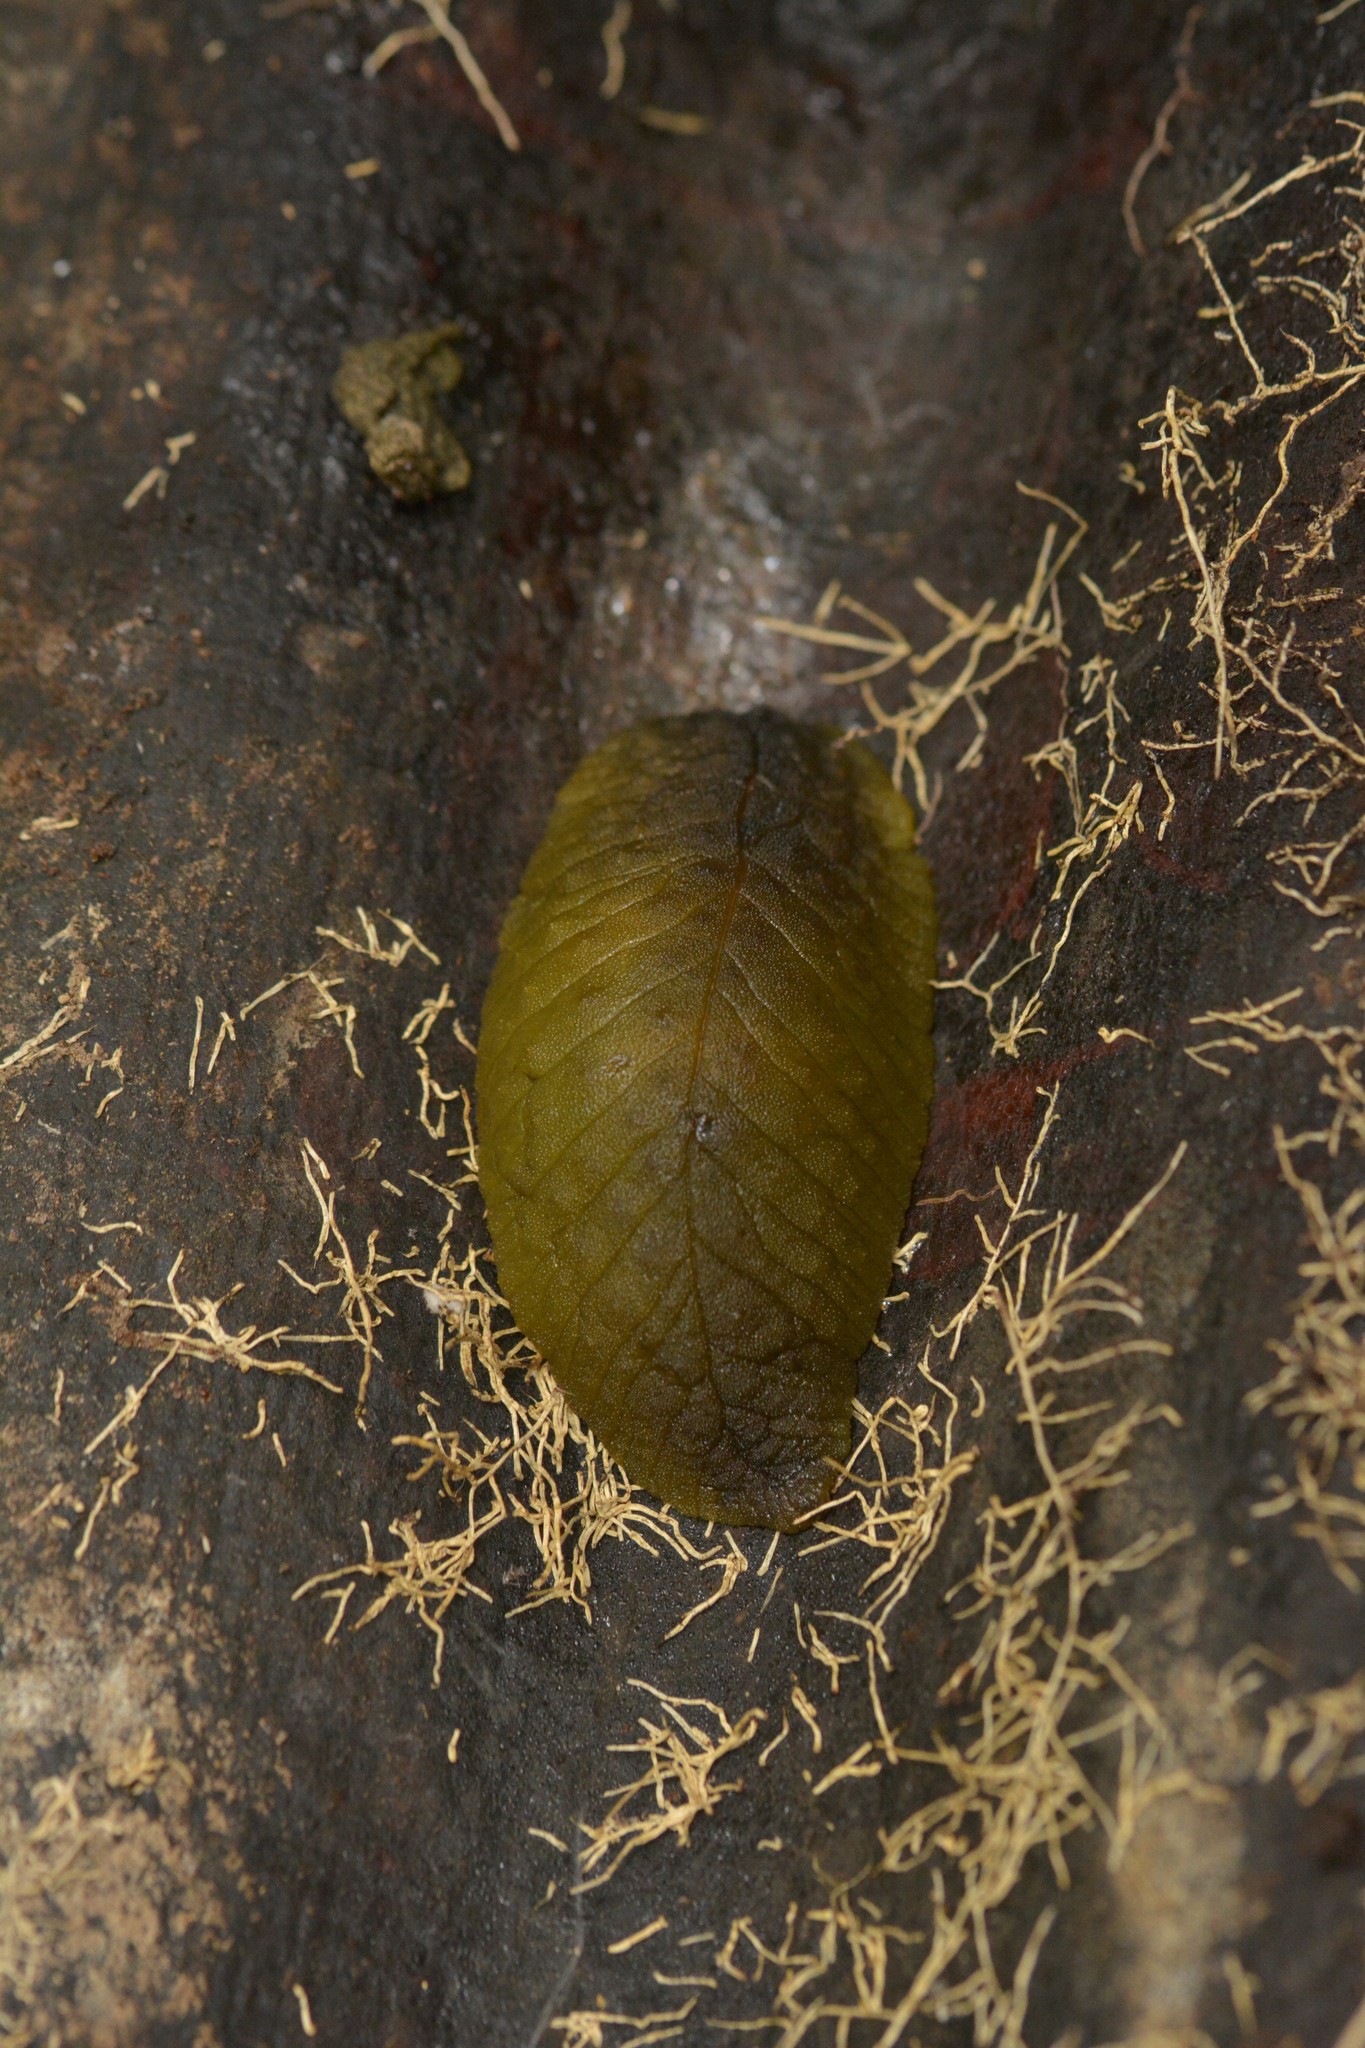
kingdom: Animalia
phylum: Mollusca
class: Gastropoda
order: Stylommatophora
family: Athoracophoridae
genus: Athoracophorus
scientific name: Athoracophorus papillatus
